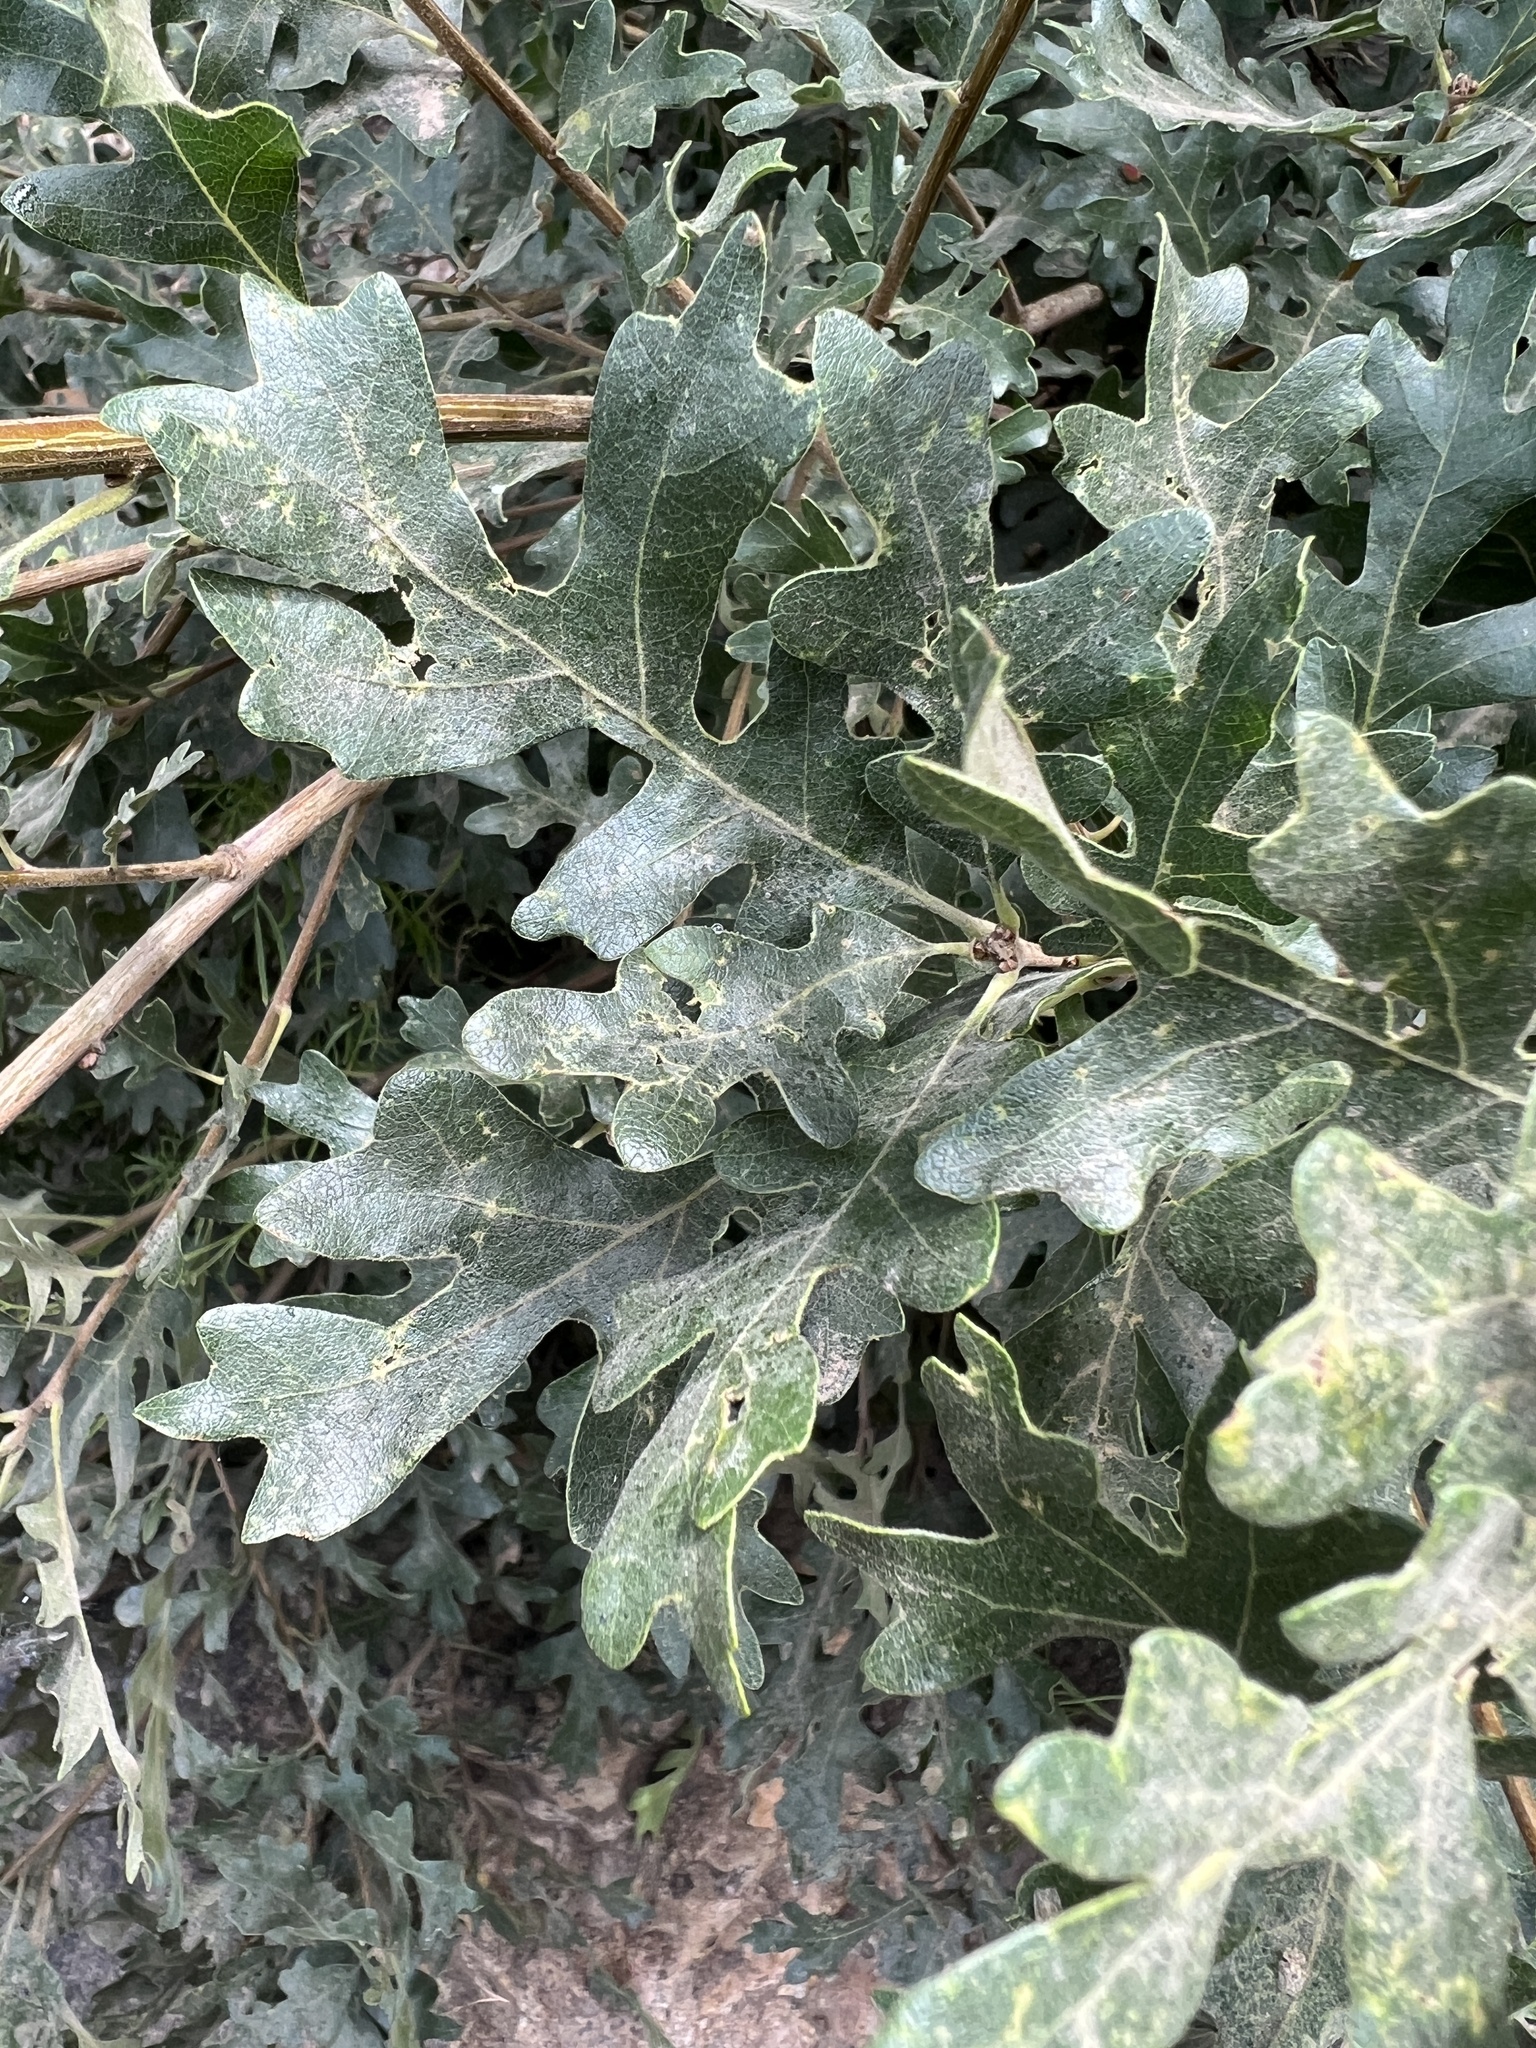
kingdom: Plantae
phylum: Tracheophyta
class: Magnoliopsida
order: Fagales
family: Fagaceae
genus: Quercus
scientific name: Quercus gambelii
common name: Gambel oak
